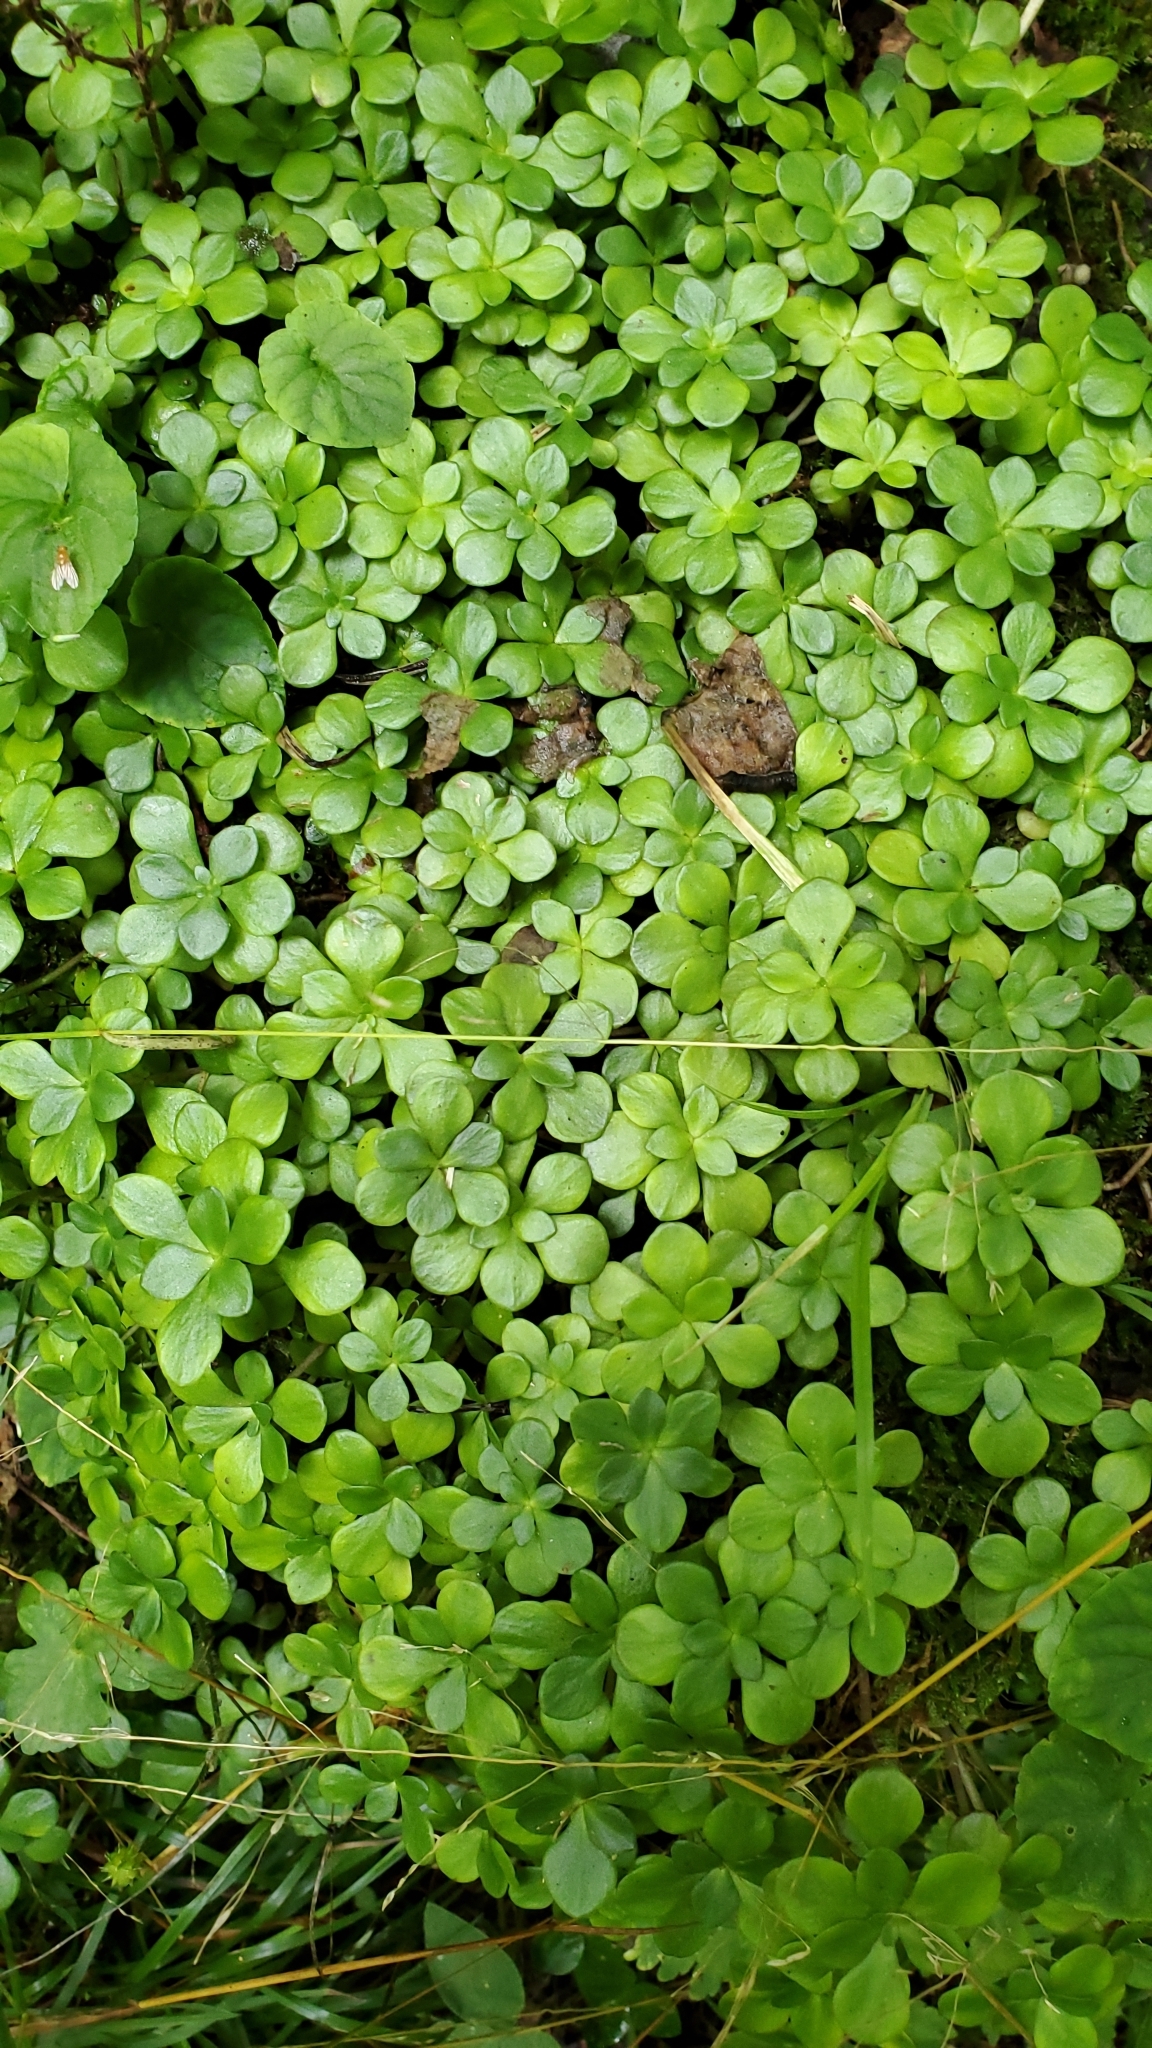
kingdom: Plantae
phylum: Tracheophyta
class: Magnoliopsida
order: Saxifragales
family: Crassulaceae
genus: Sedum
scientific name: Sedum ternatum
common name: Wild stonecrop
